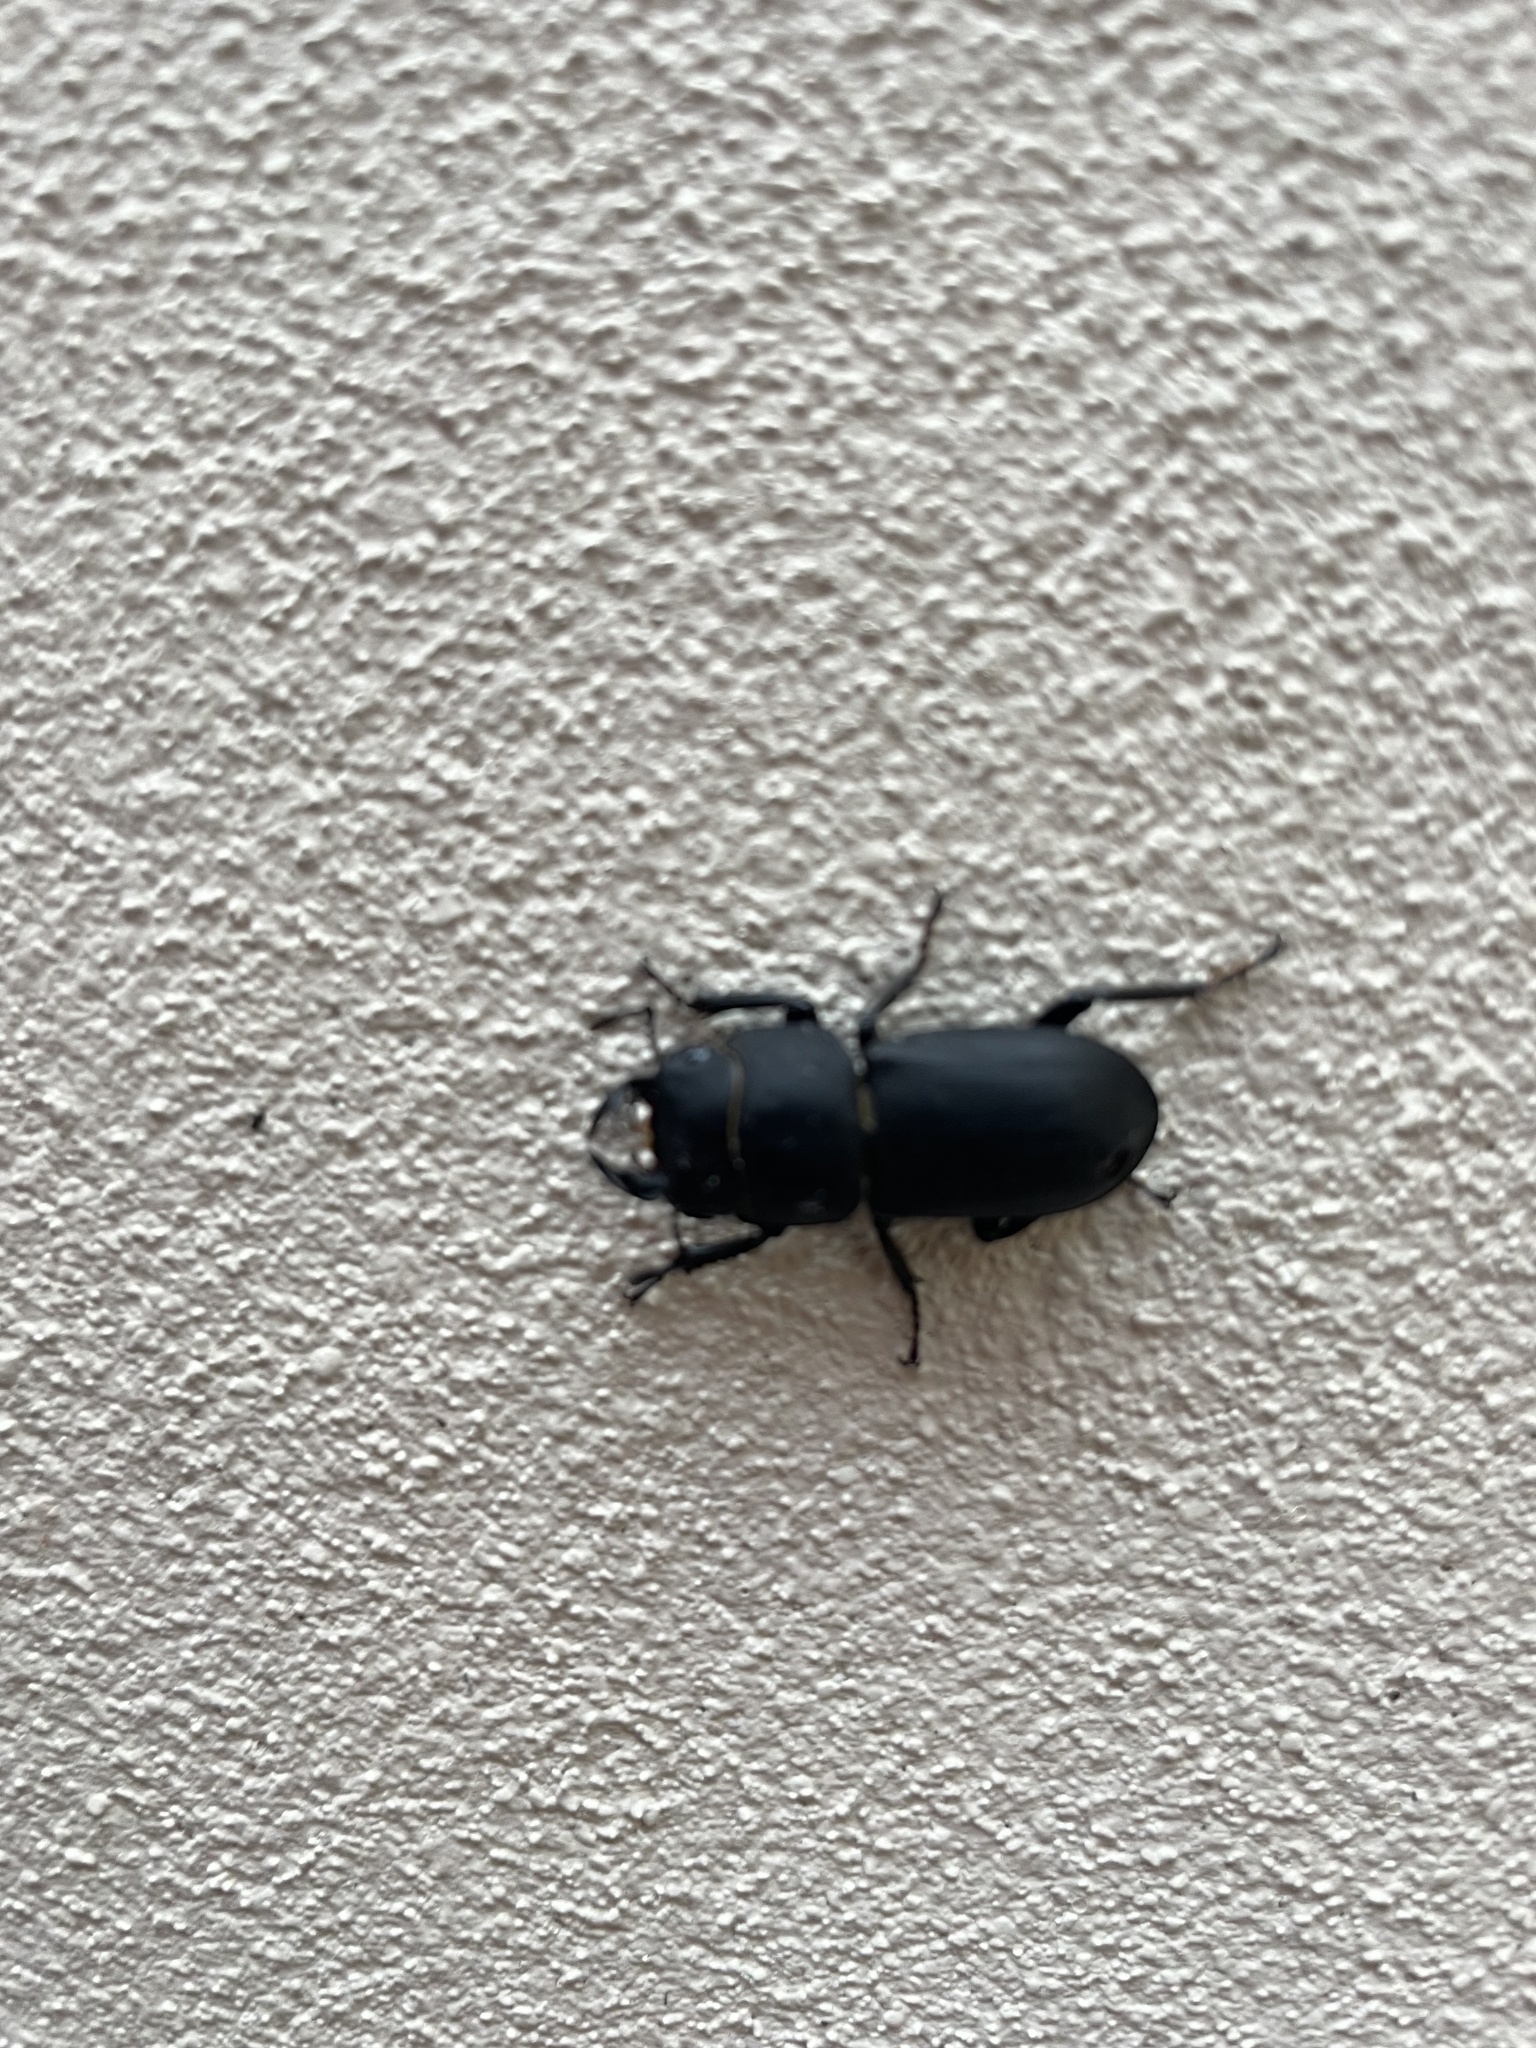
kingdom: Animalia
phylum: Arthropoda
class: Insecta
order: Coleoptera
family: Lucanidae
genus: Dorcus
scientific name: Dorcus parallelipipedus
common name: Lesser stag beetle
